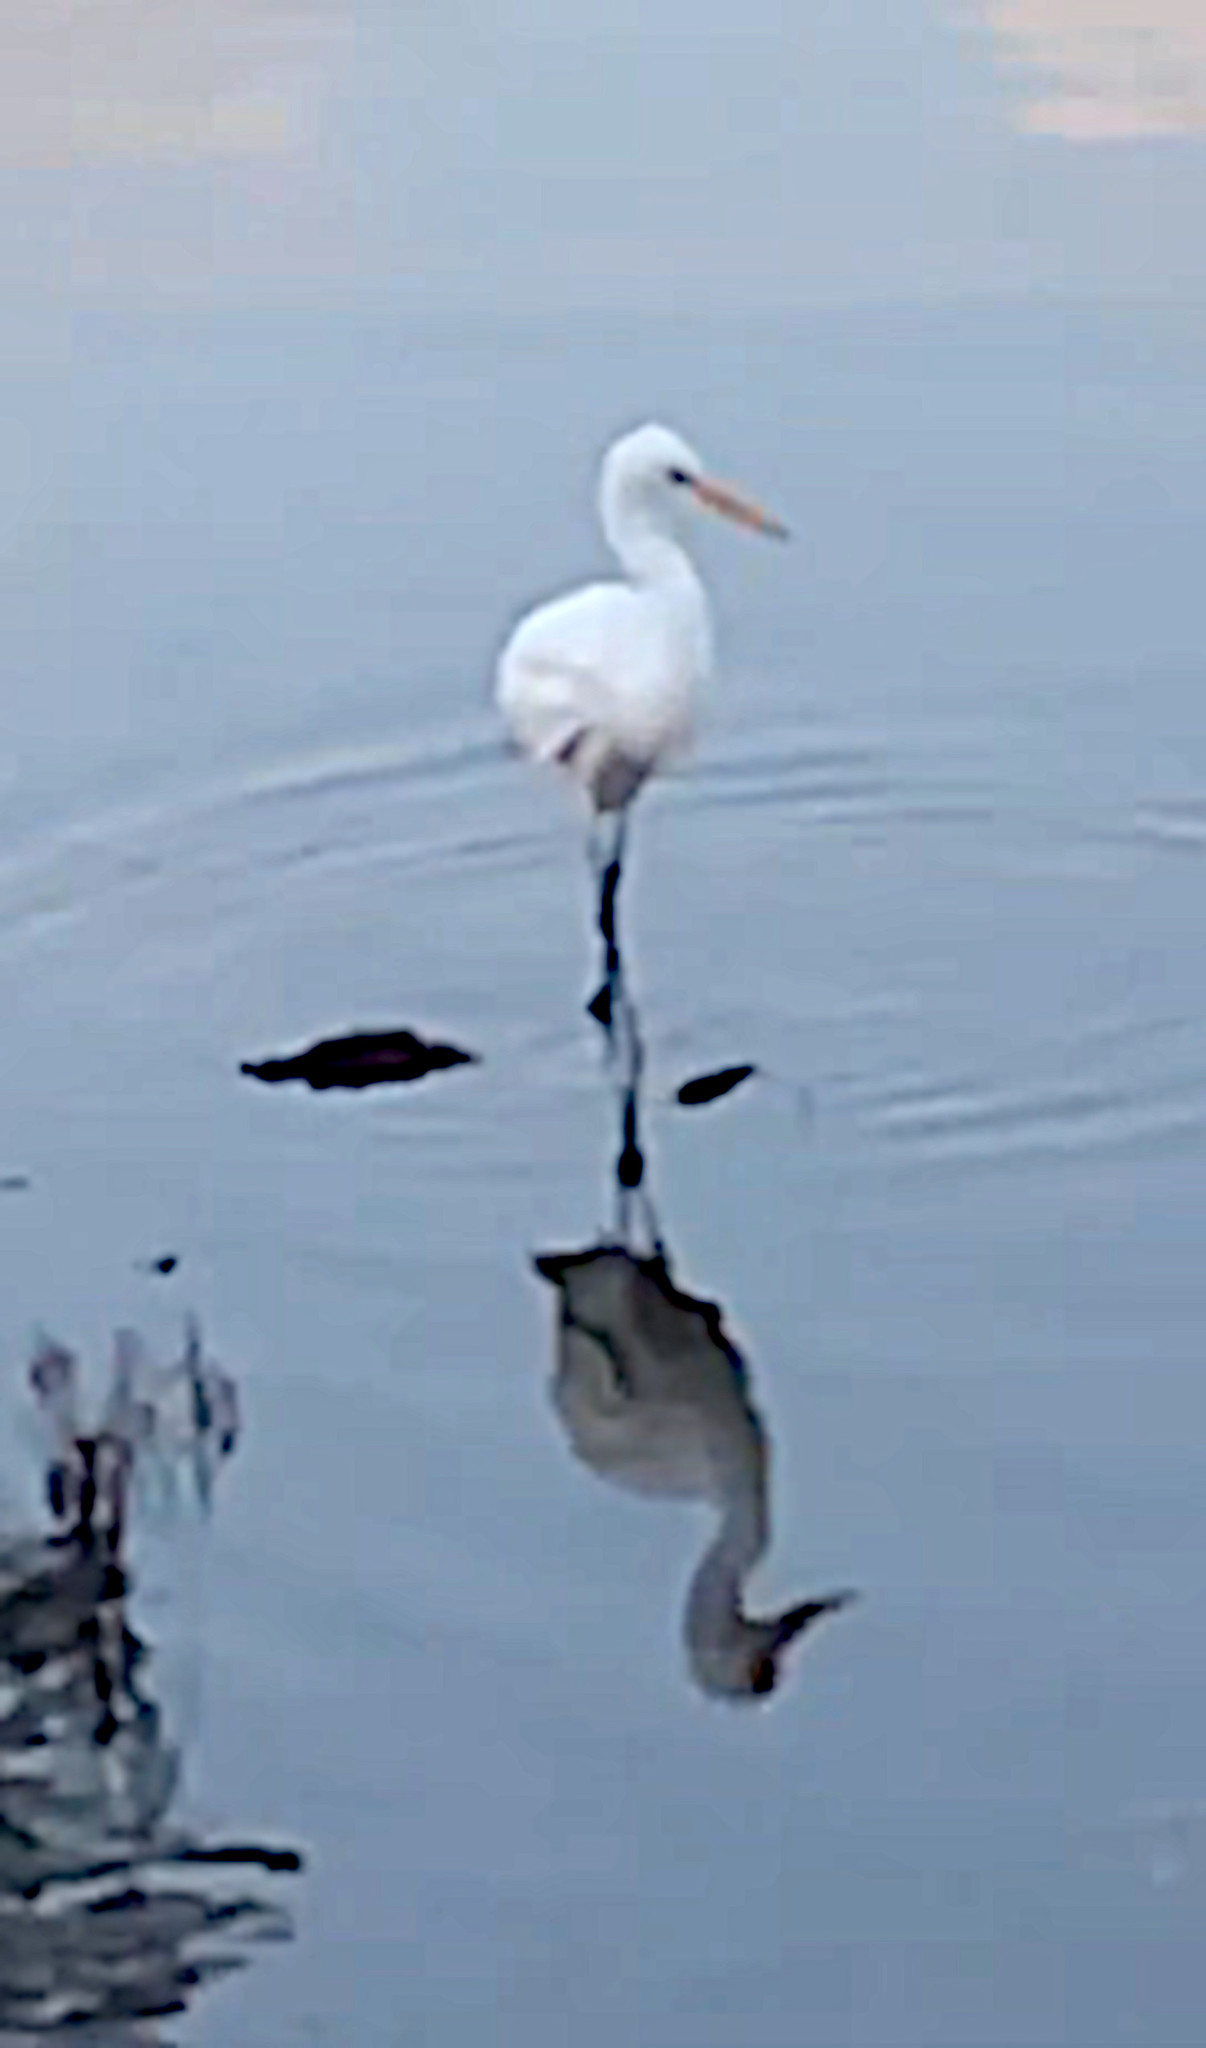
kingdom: Animalia
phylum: Chordata
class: Aves
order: Pelecaniformes
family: Ardeidae
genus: Ardea
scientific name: Ardea alba
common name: Great egret
